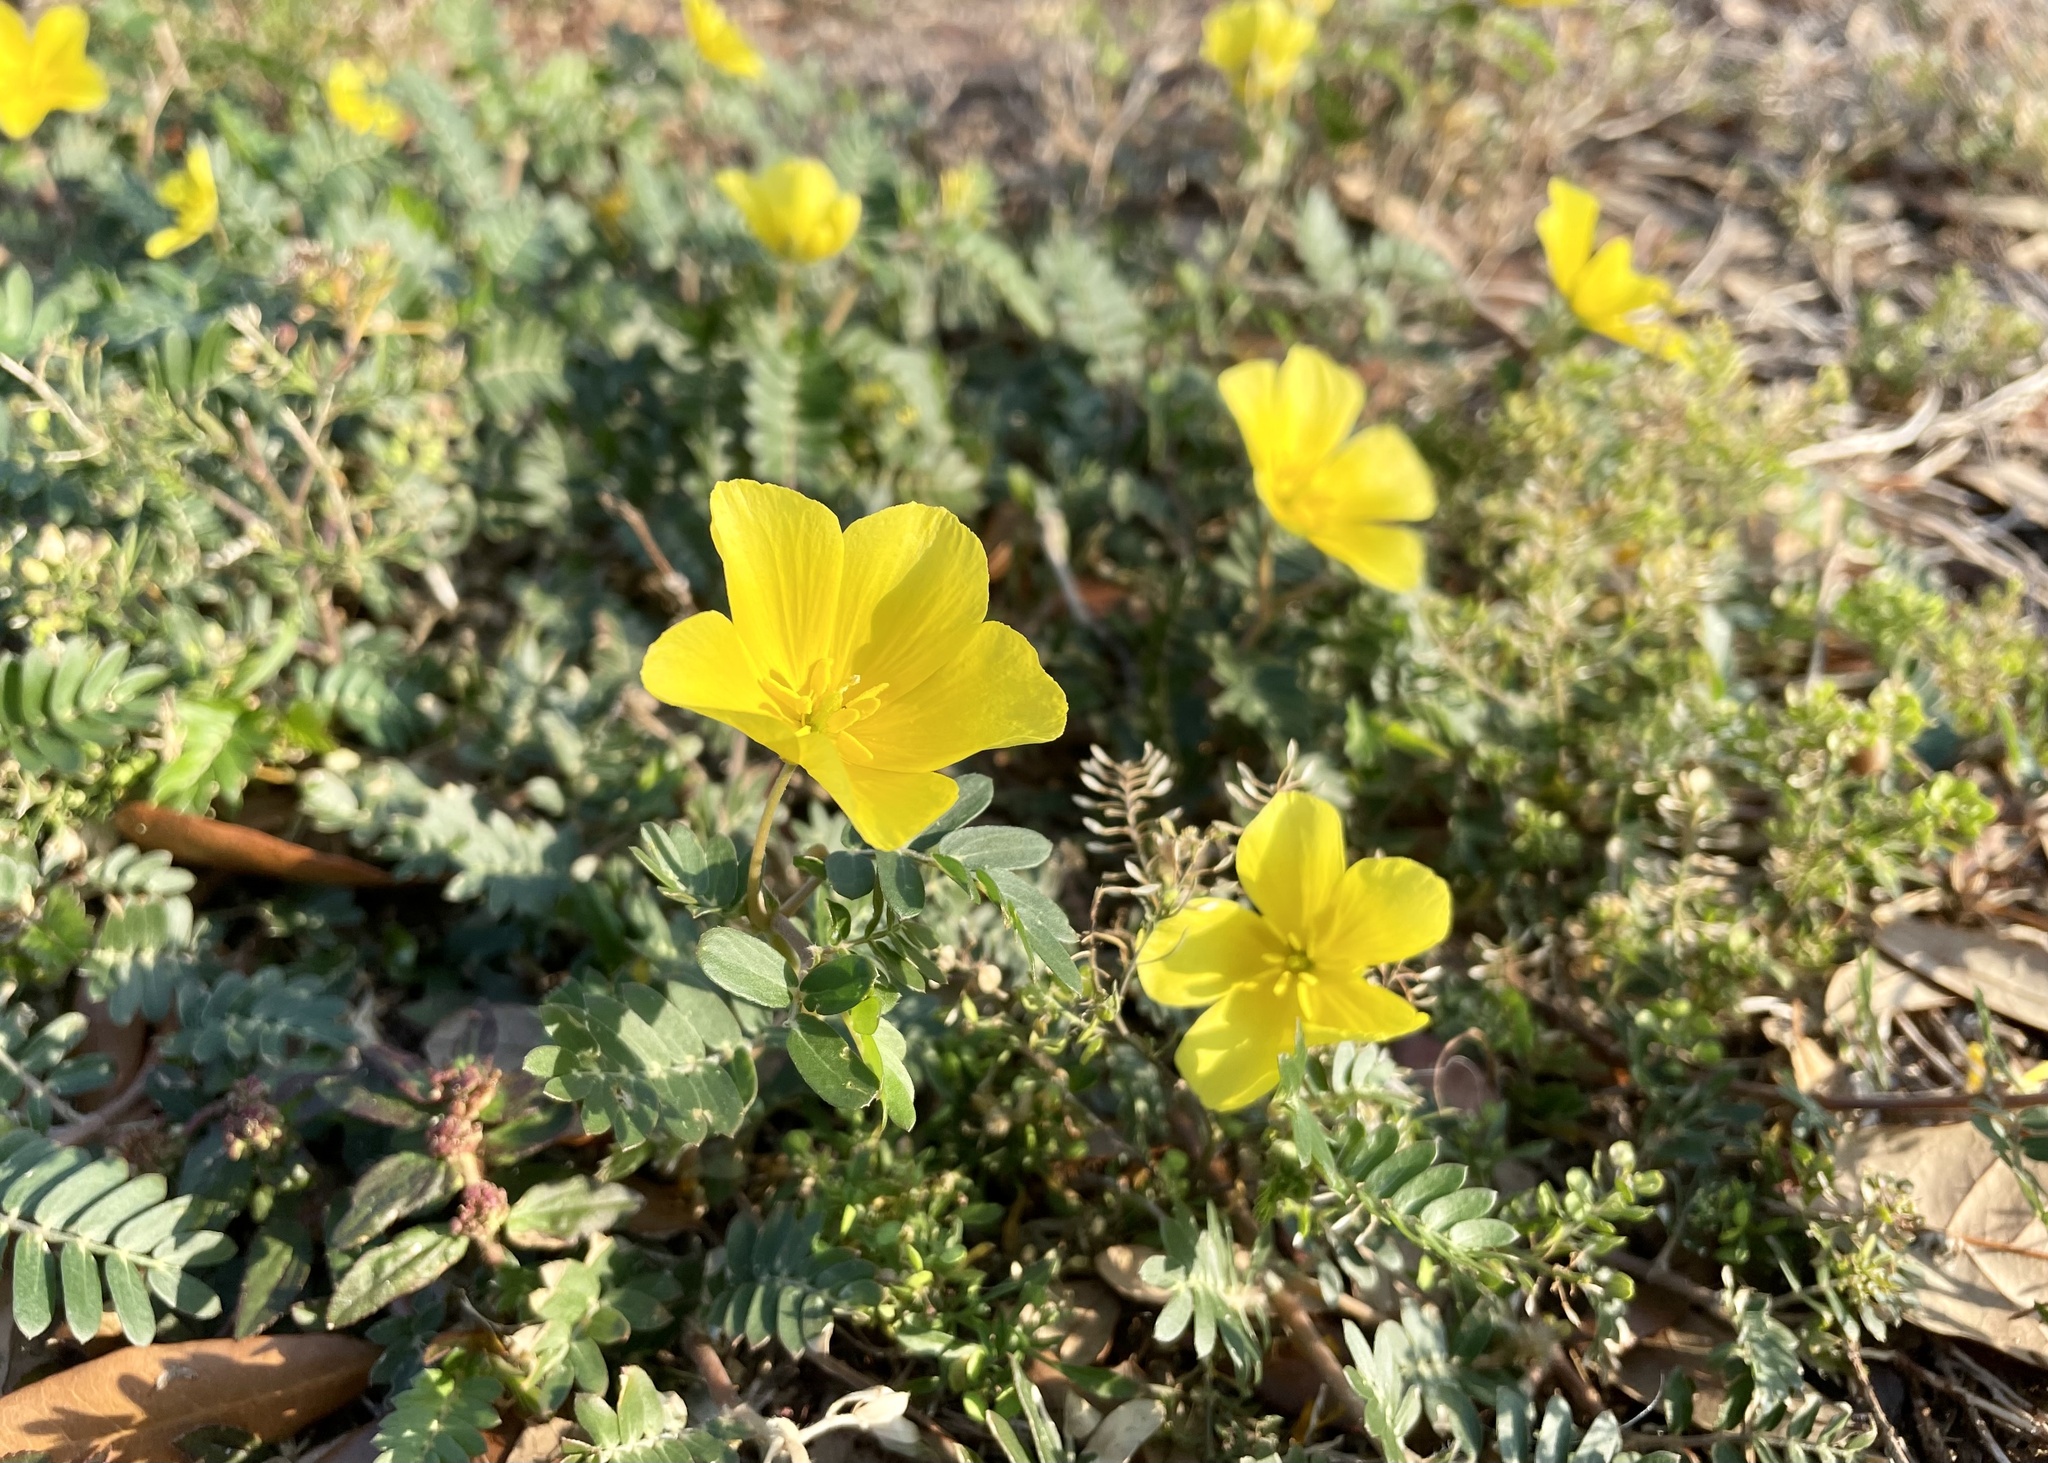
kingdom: Plantae
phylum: Tracheophyta
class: Magnoliopsida
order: Zygophyllales
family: Zygophyllaceae
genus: Tribulus
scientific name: Tribulus cistoides
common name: Jamaican feverplant
